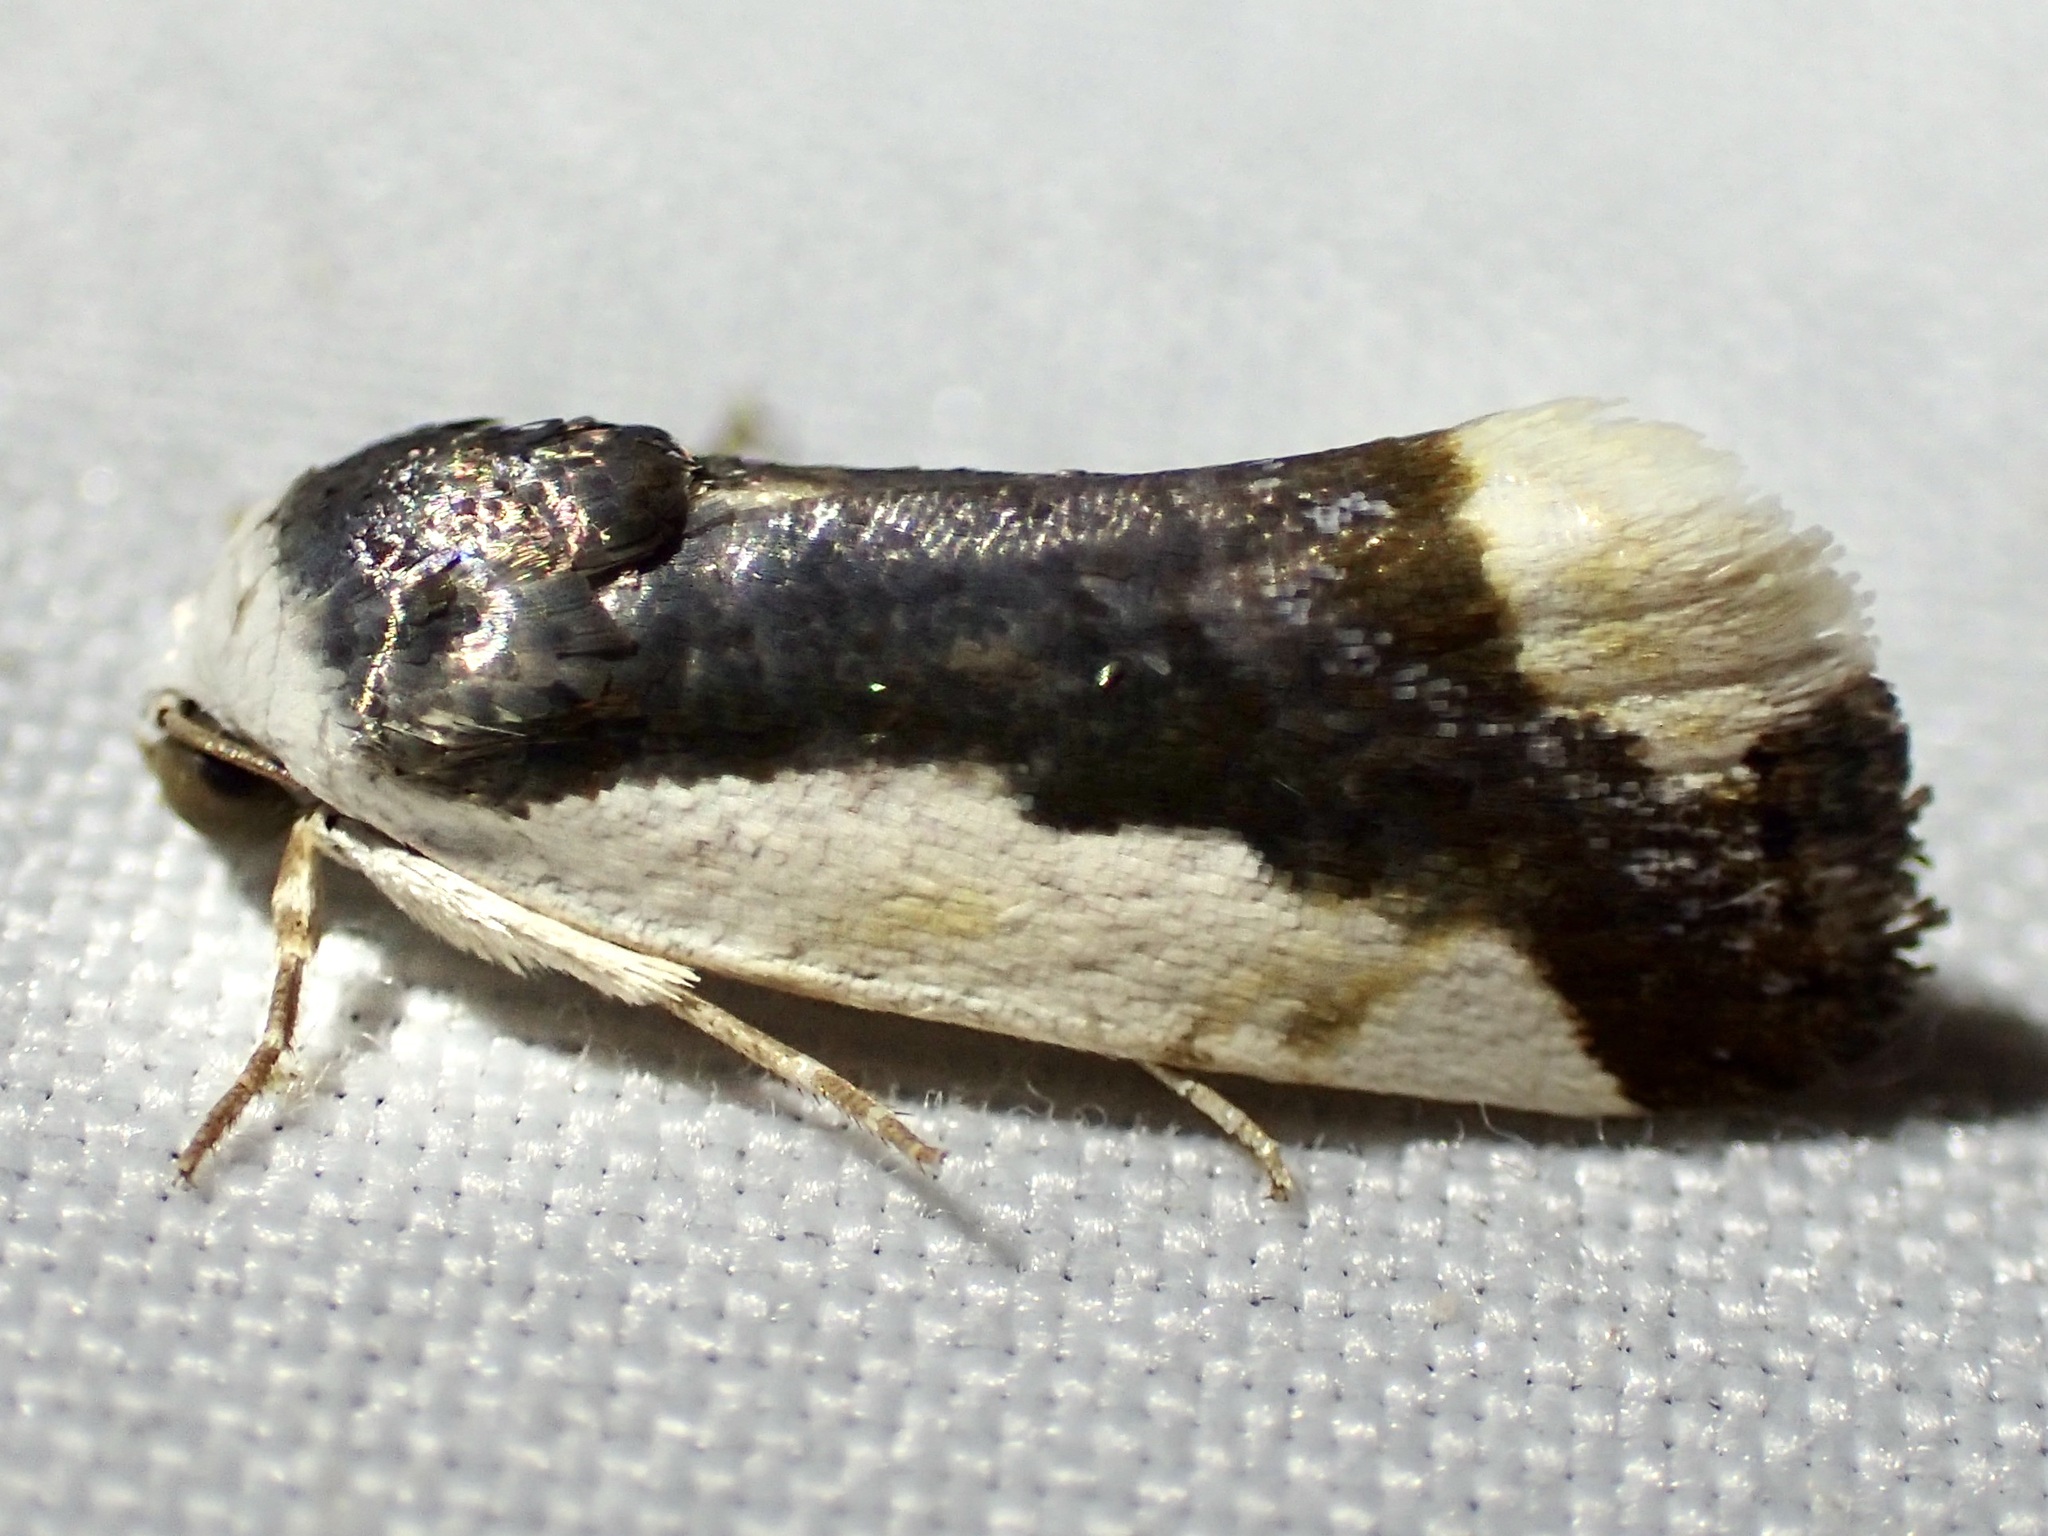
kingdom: Animalia
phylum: Arthropoda
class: Insecta
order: Lepidoptera
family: Noctuidae
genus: Acontia
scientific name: Acontia Tarache expolita
